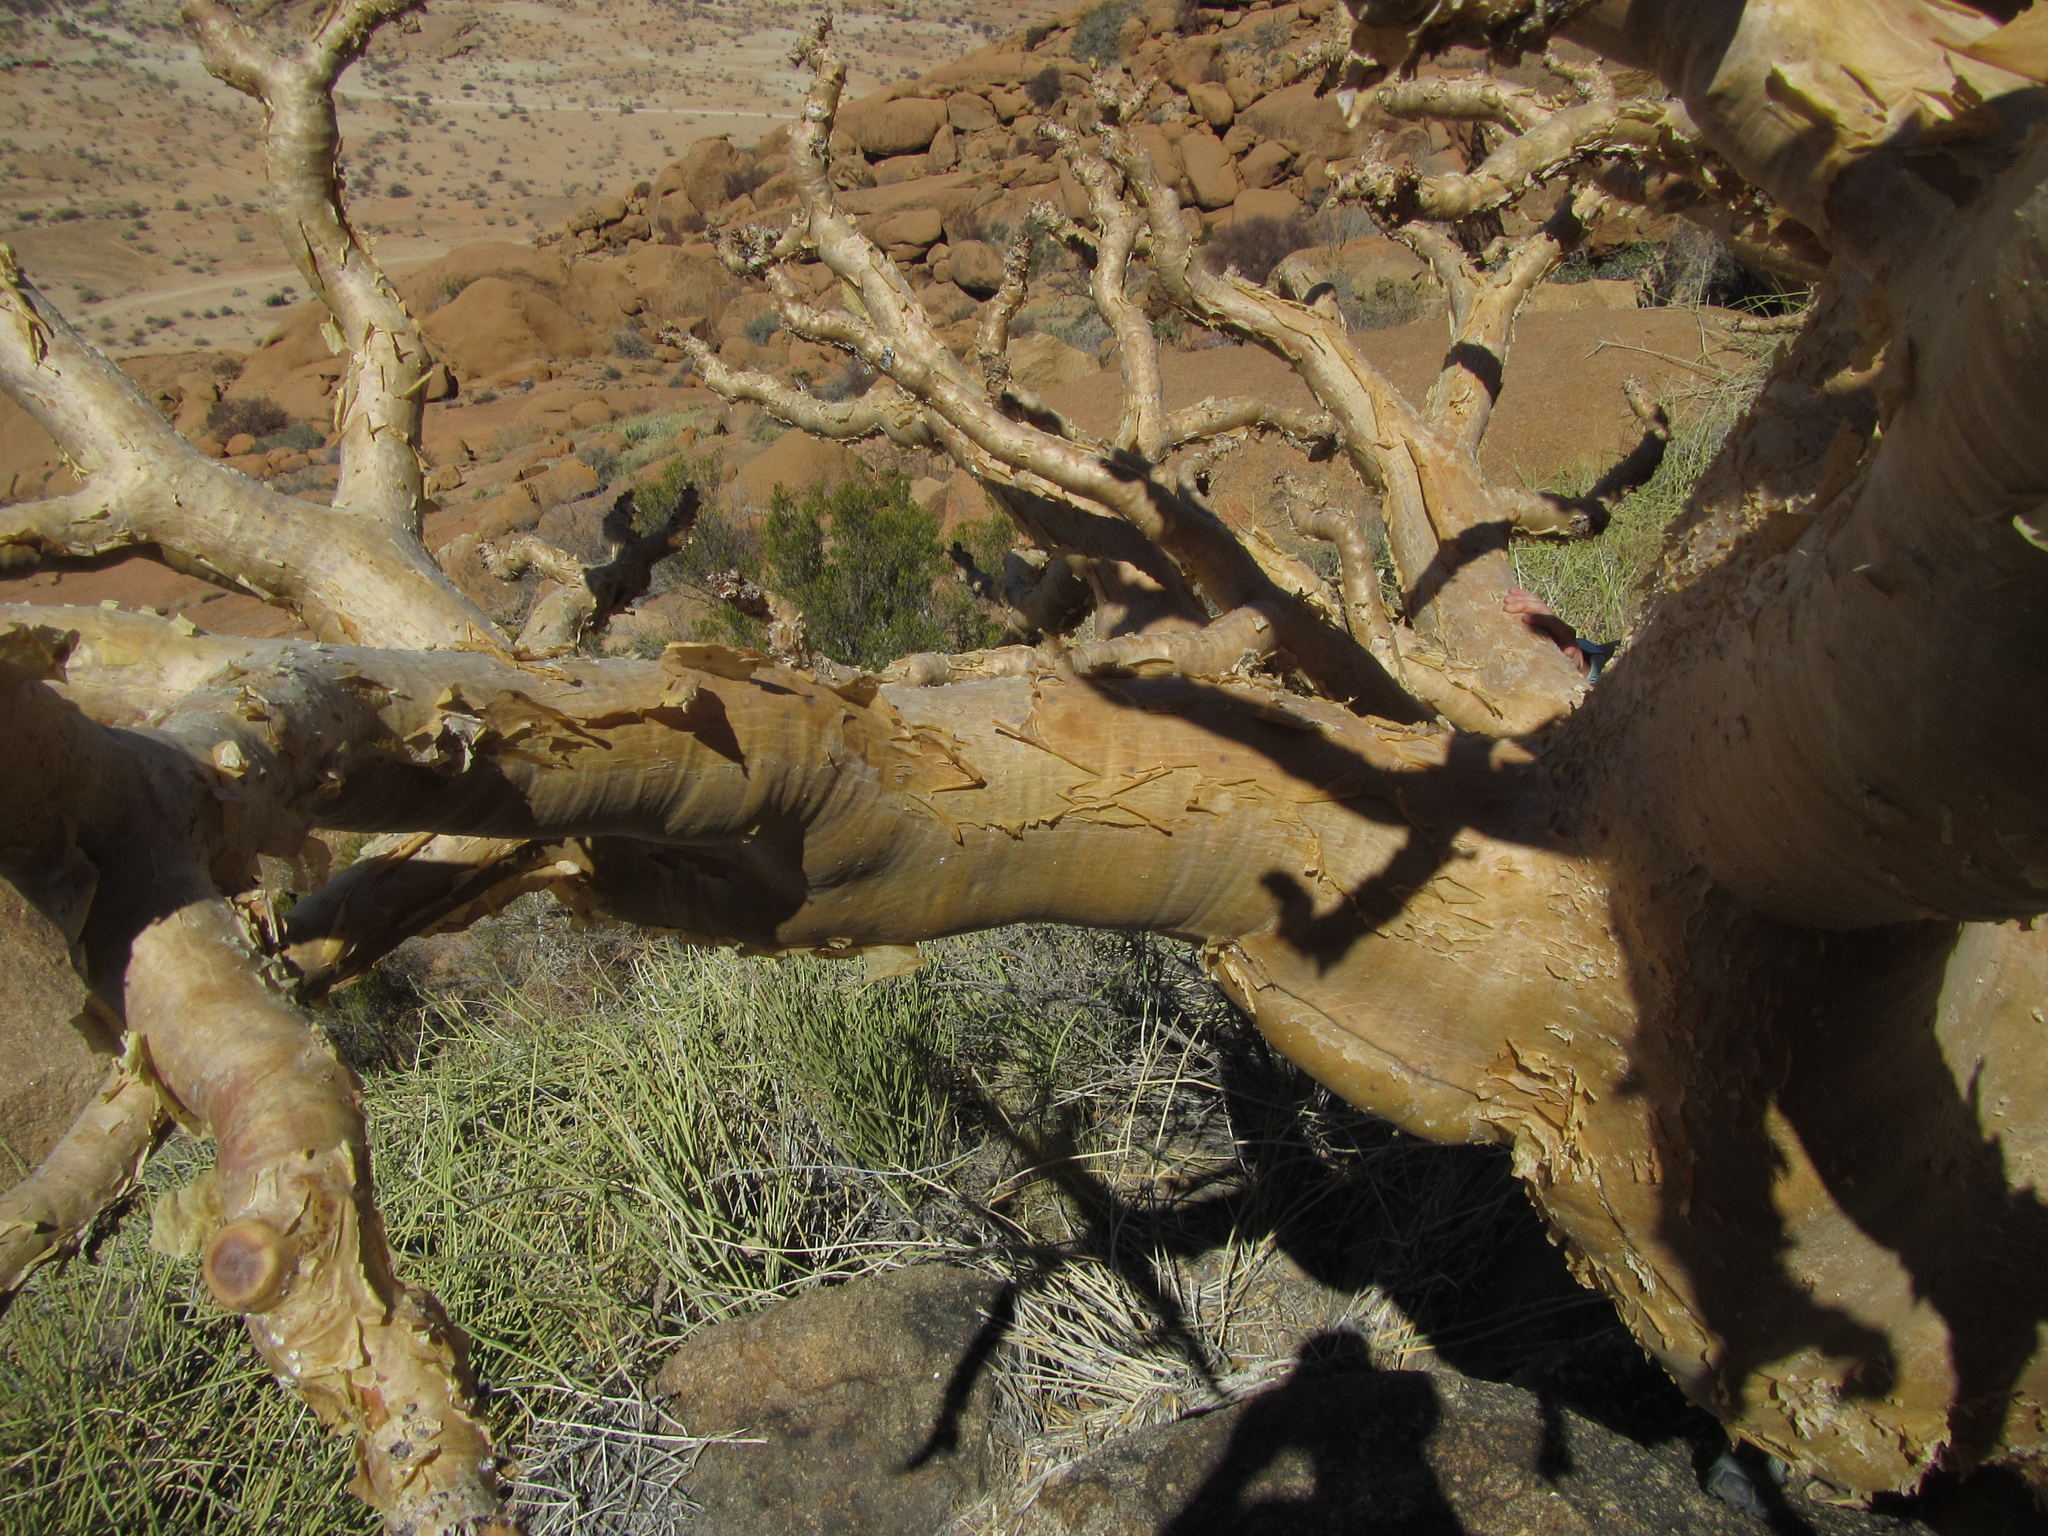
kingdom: Plantae
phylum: Tracheophyta
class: Magnoliopsida
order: Vitales
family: Vitaceae
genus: Cyphostemma
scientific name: Cyphostemma currorii
